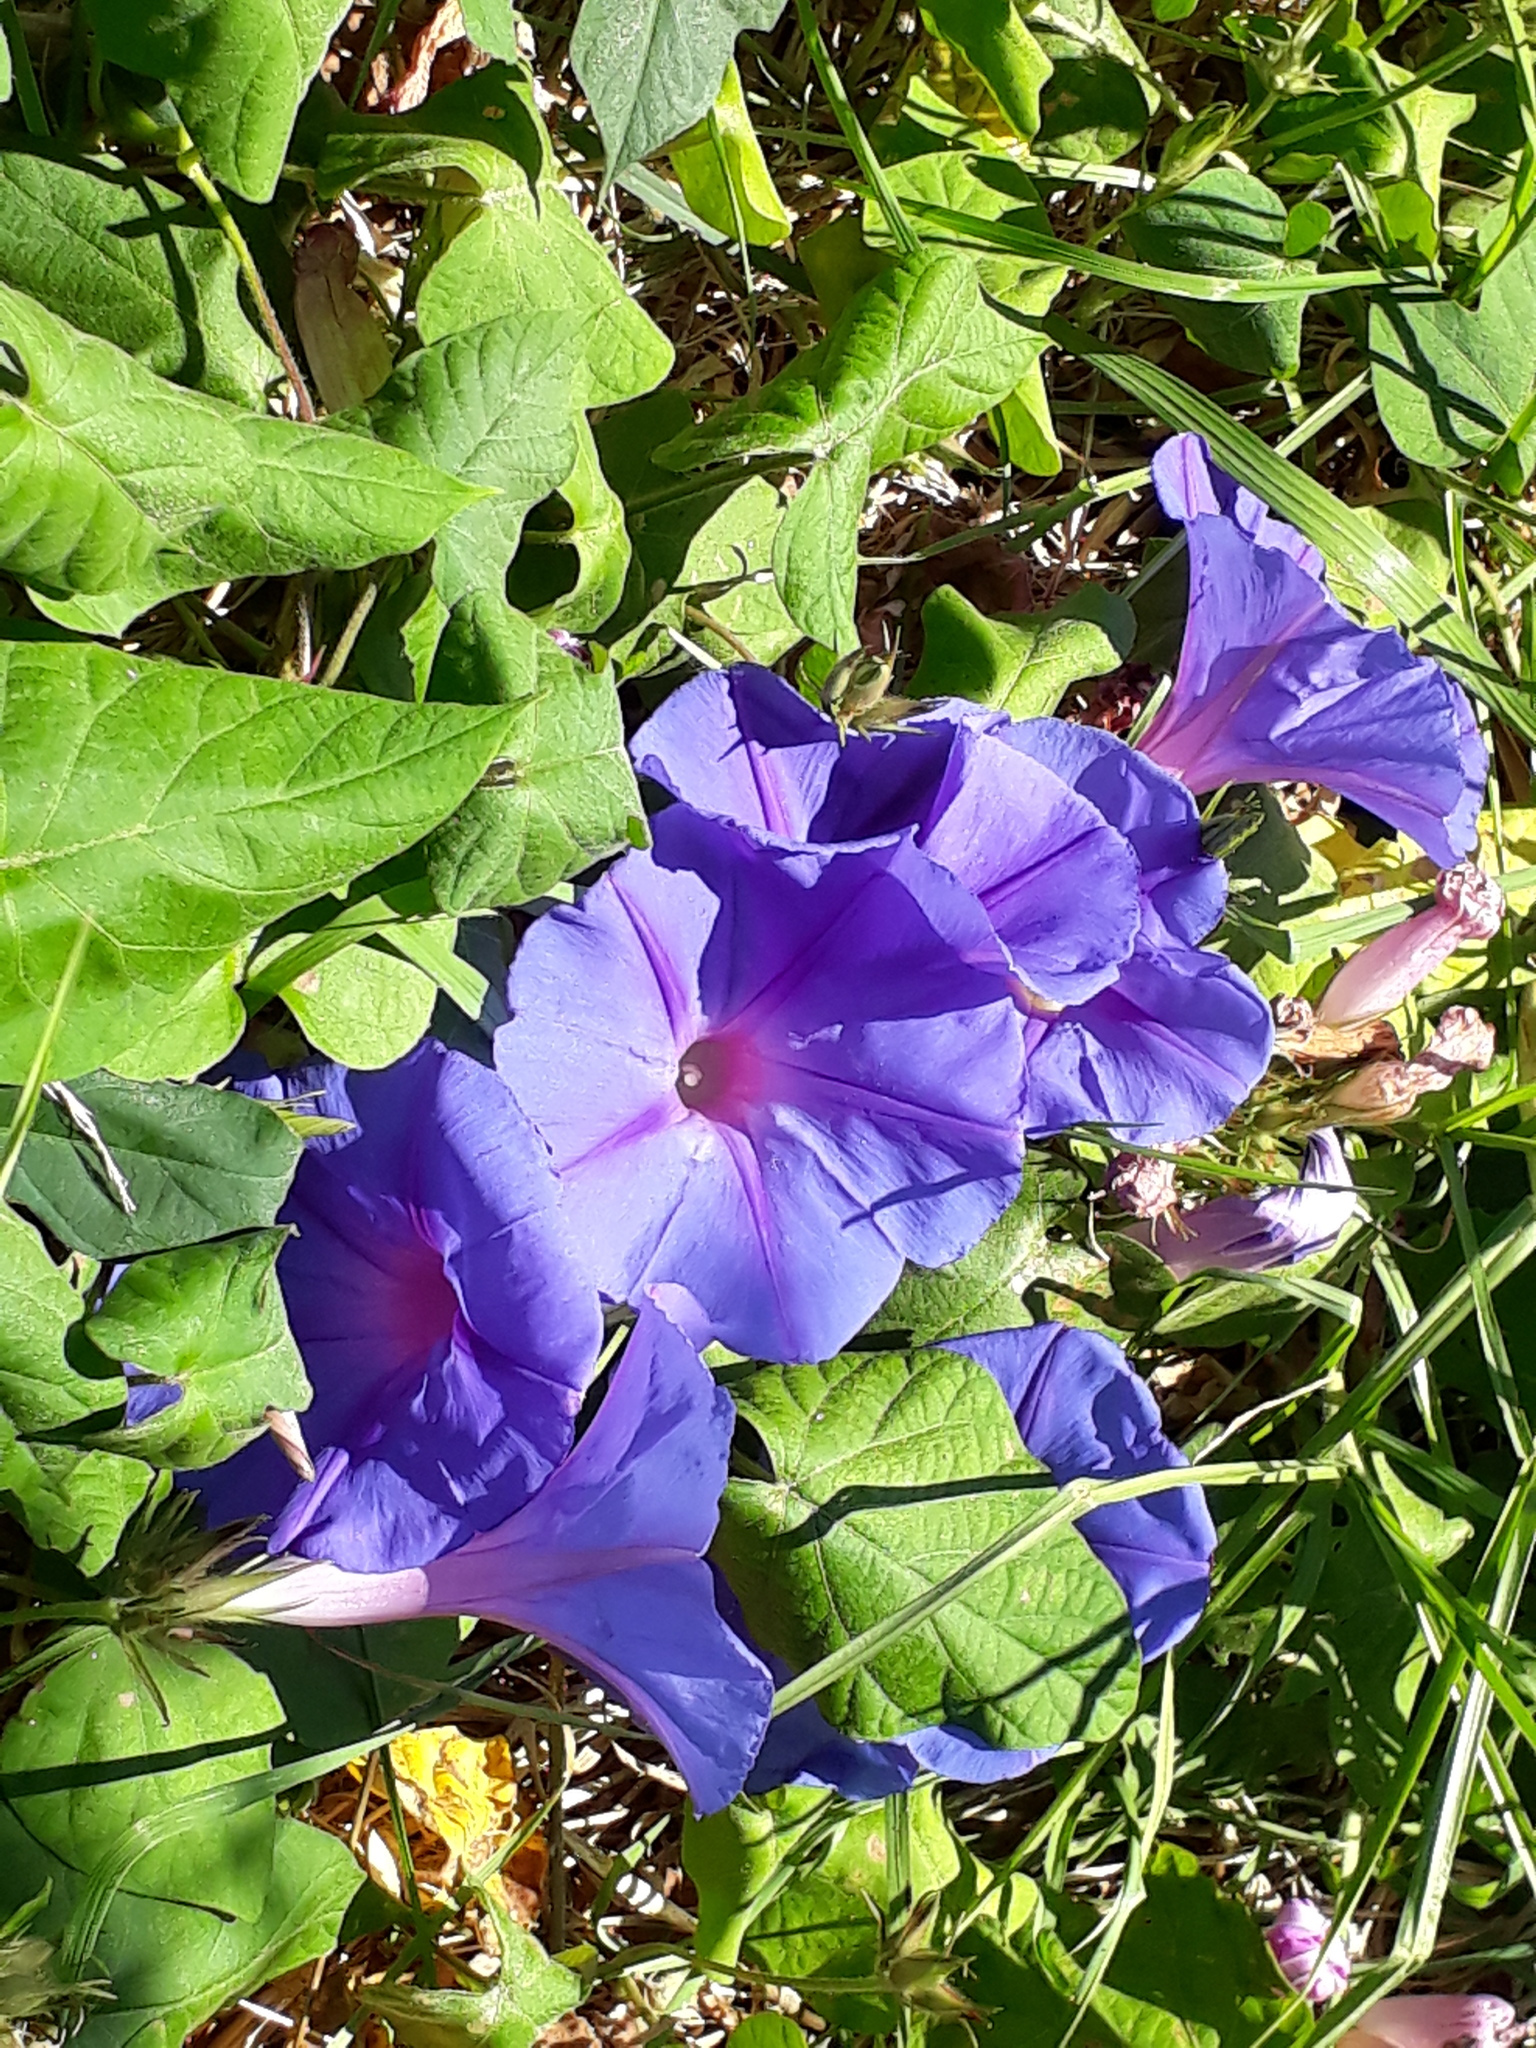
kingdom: Plantae
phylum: Tracheophyta
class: Magnoliopsida
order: Solanales
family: Convolvulaceae
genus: Ipomoea
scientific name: Ipomoea indica
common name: Blue dawnflower
